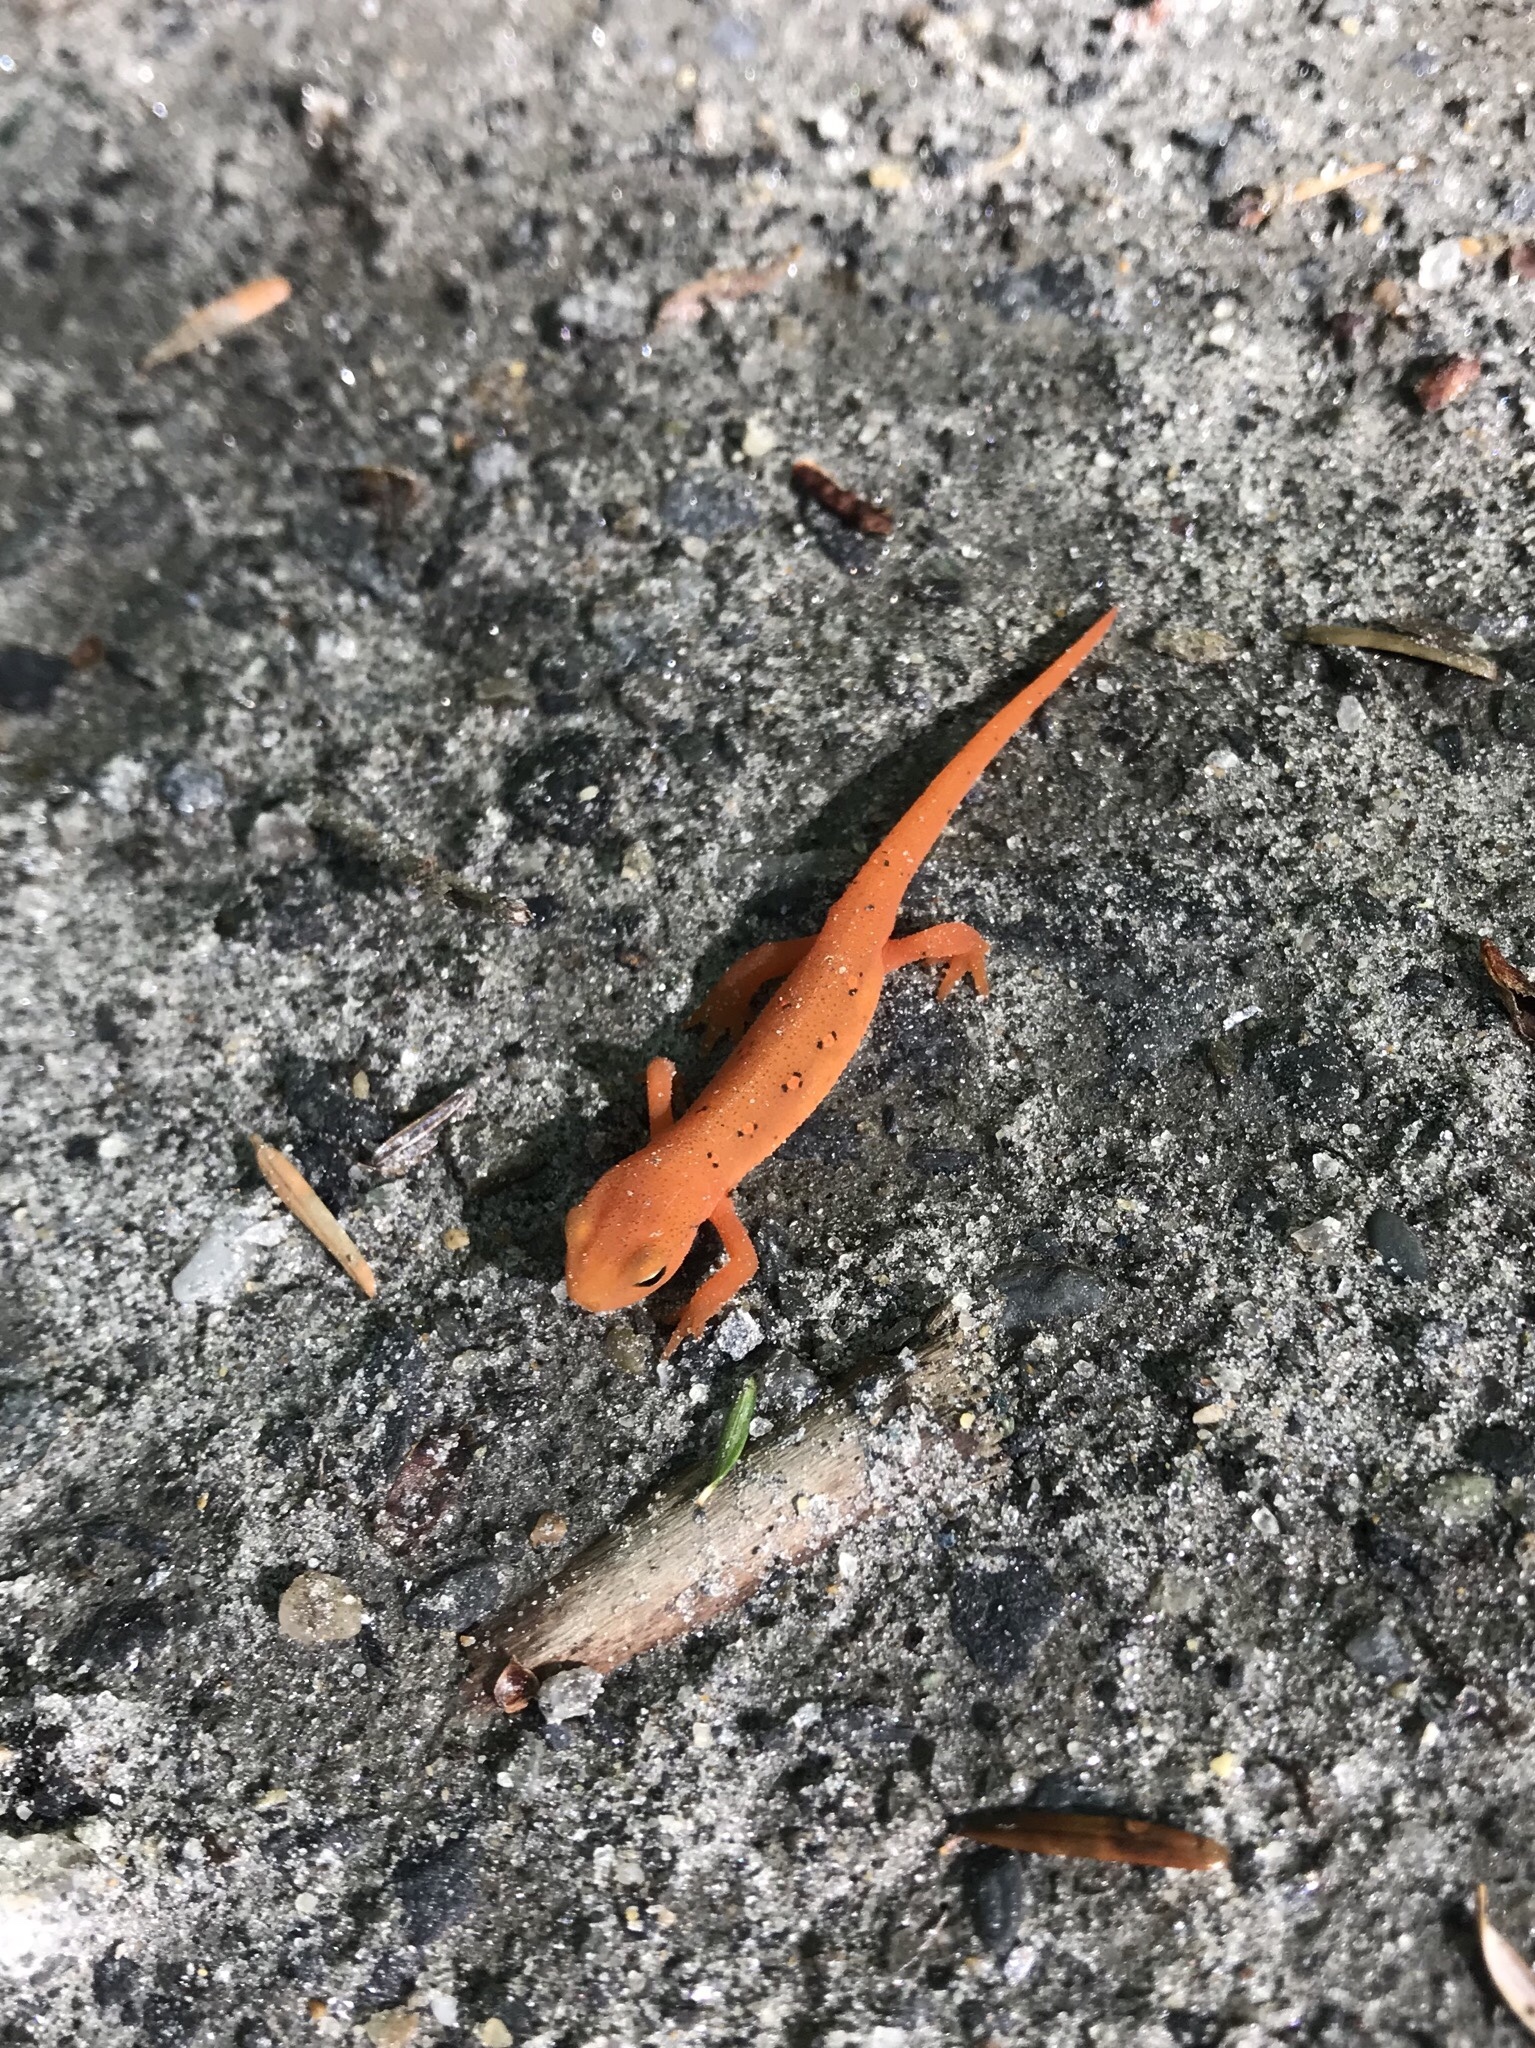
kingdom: Animalia
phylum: Chordata
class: Amphibia
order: Caudata
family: Salamandridae
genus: Notophthalmus
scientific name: Notophthalmus viridescens
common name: Eastern newt
